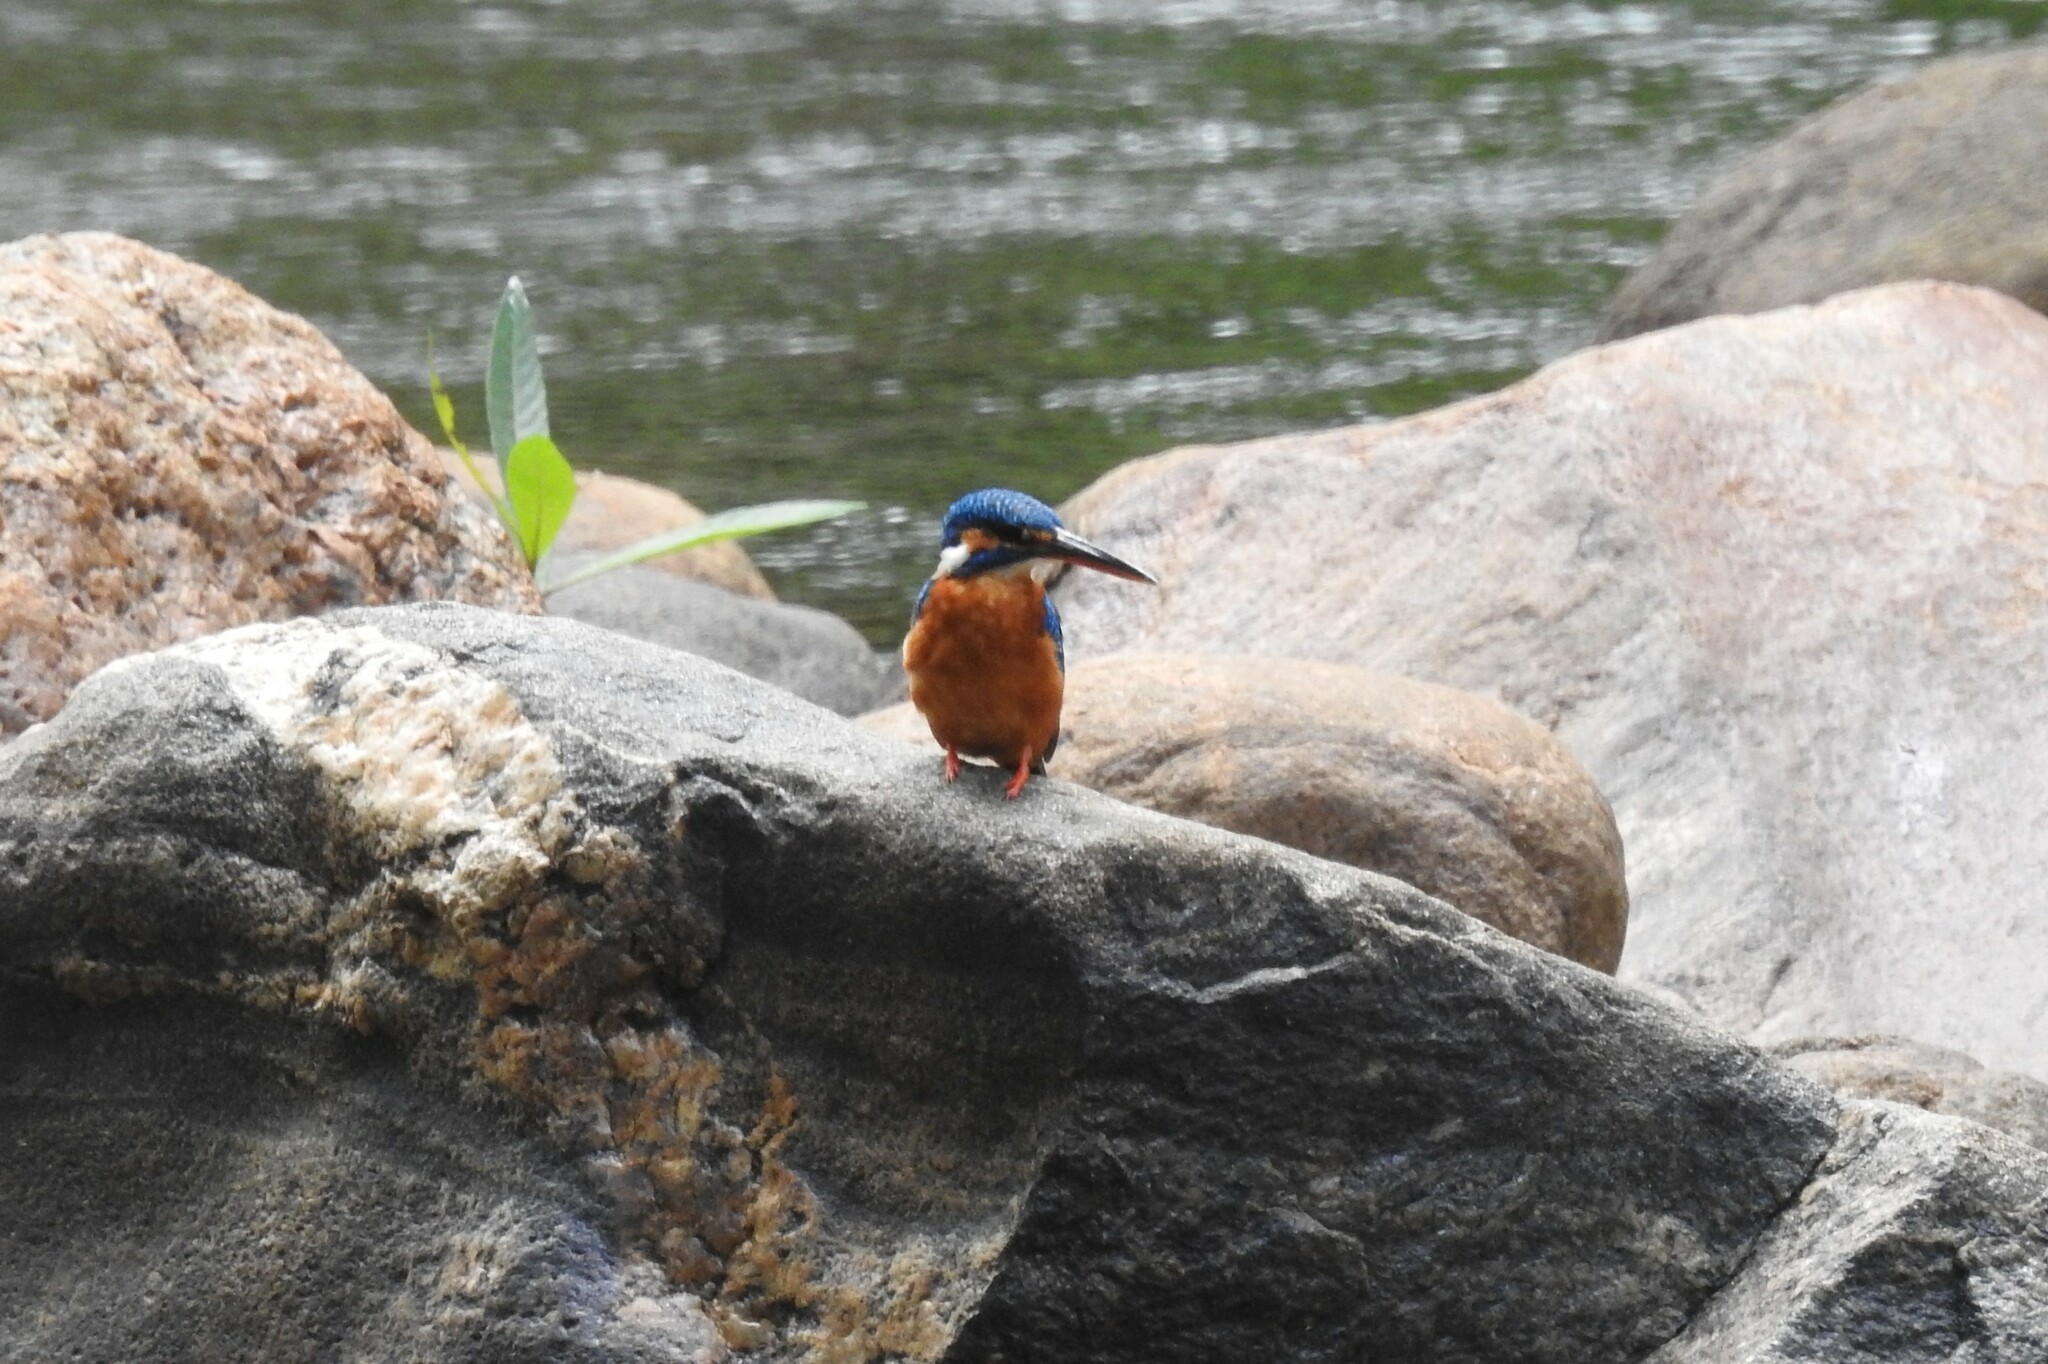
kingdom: Animalia
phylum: Chordata
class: Aves
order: Coraciiformes
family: Alcedinidae
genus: Alcedo
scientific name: Alcedo atthis
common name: Common kingfisher
